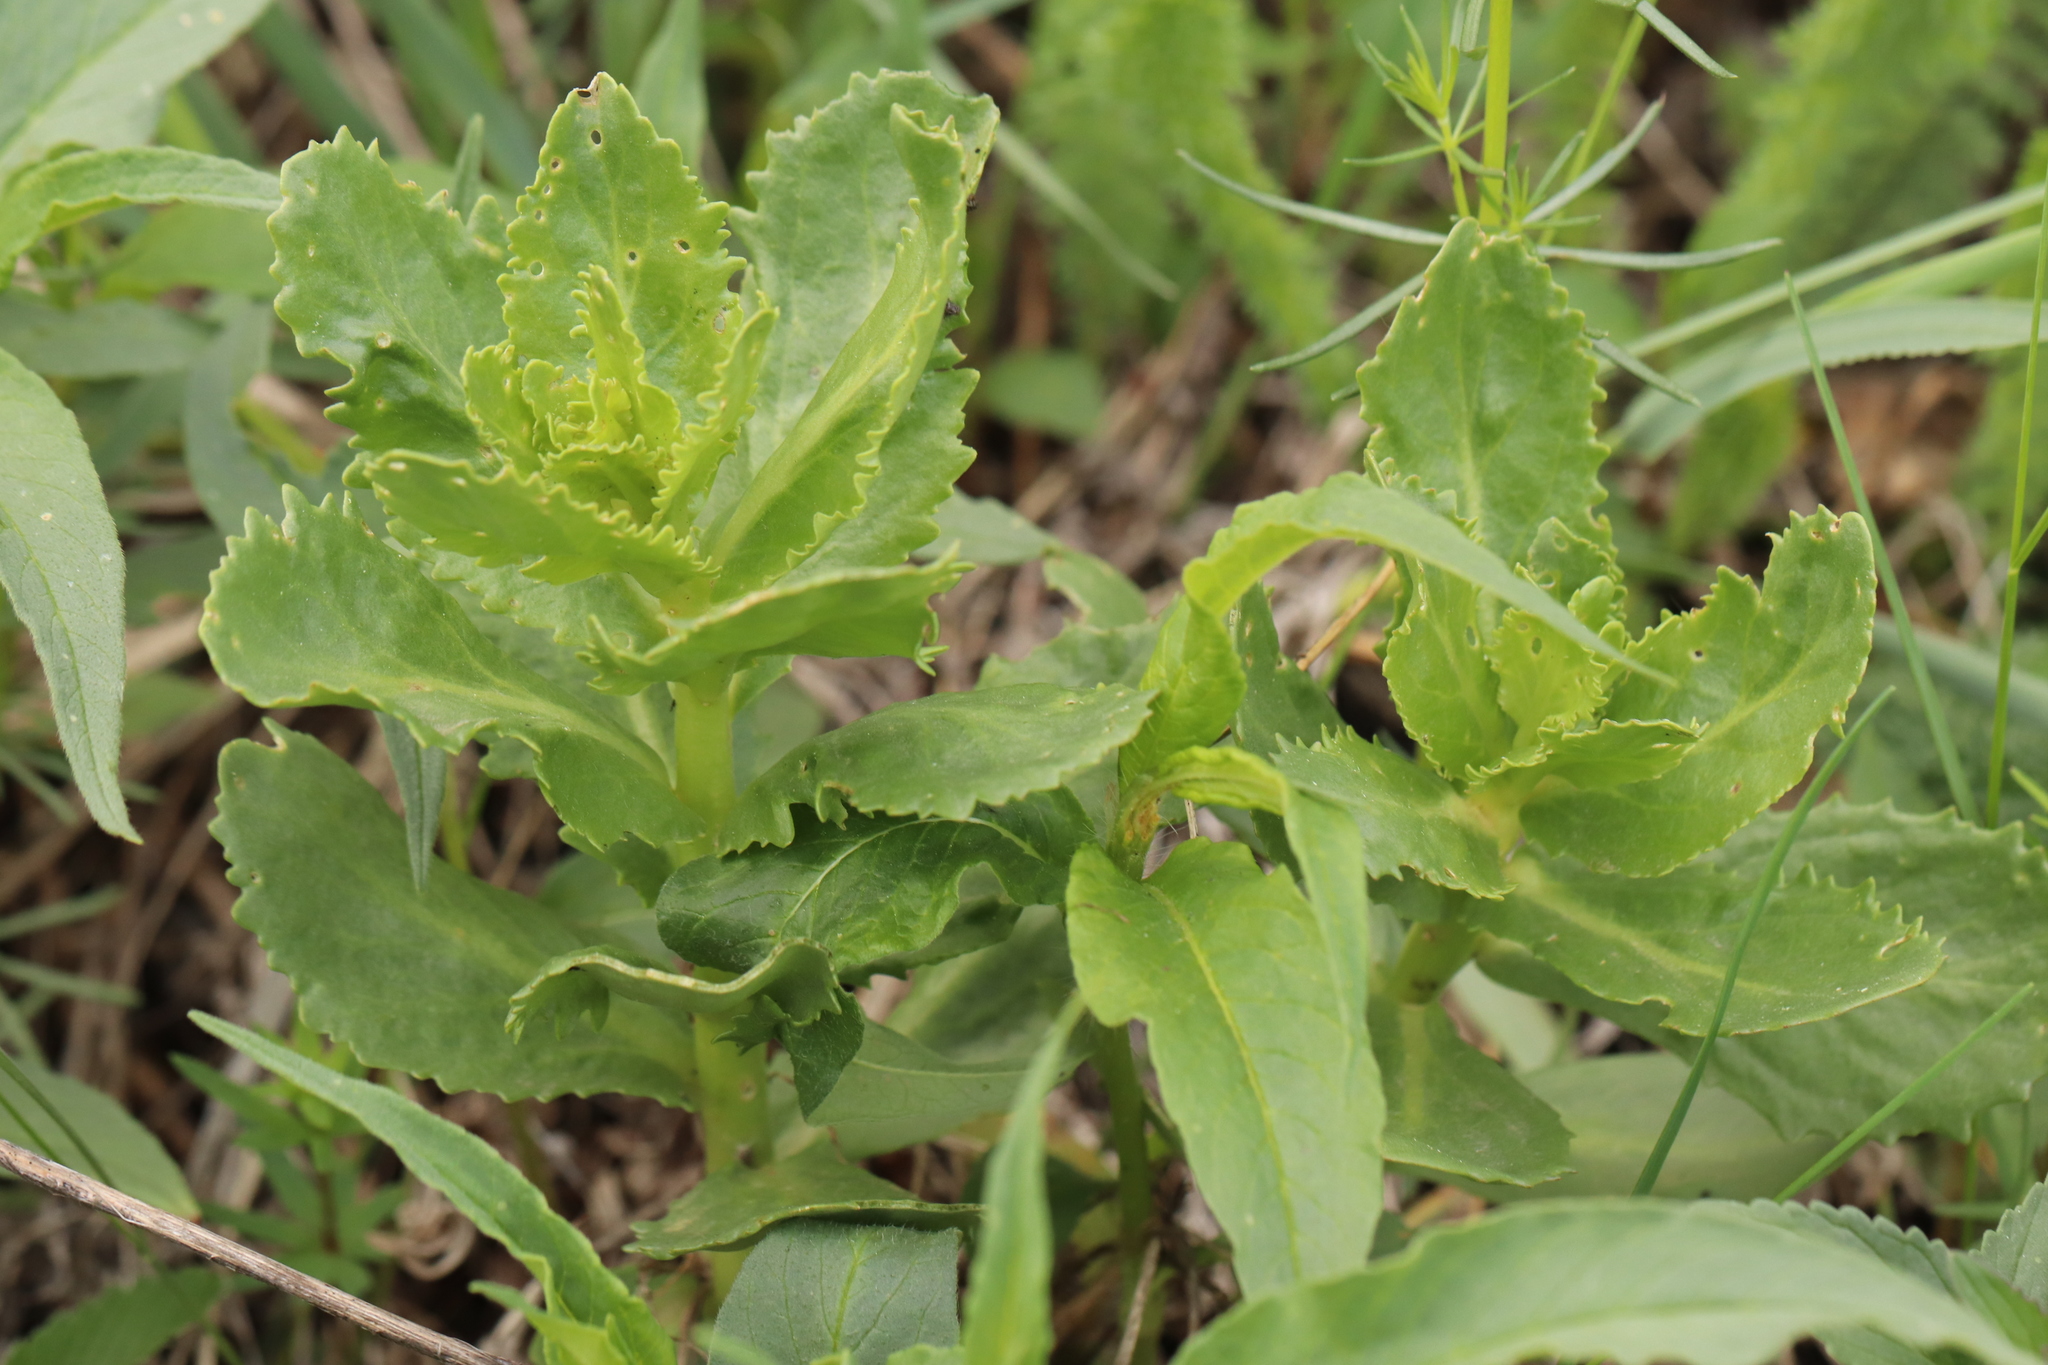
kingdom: Plantae
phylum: Tracheophyta
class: Magnoliopsida
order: Saxifragales
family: Crassulaceae
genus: Hylotelephium
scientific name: Hylotelephium telephium
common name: Live-forever
